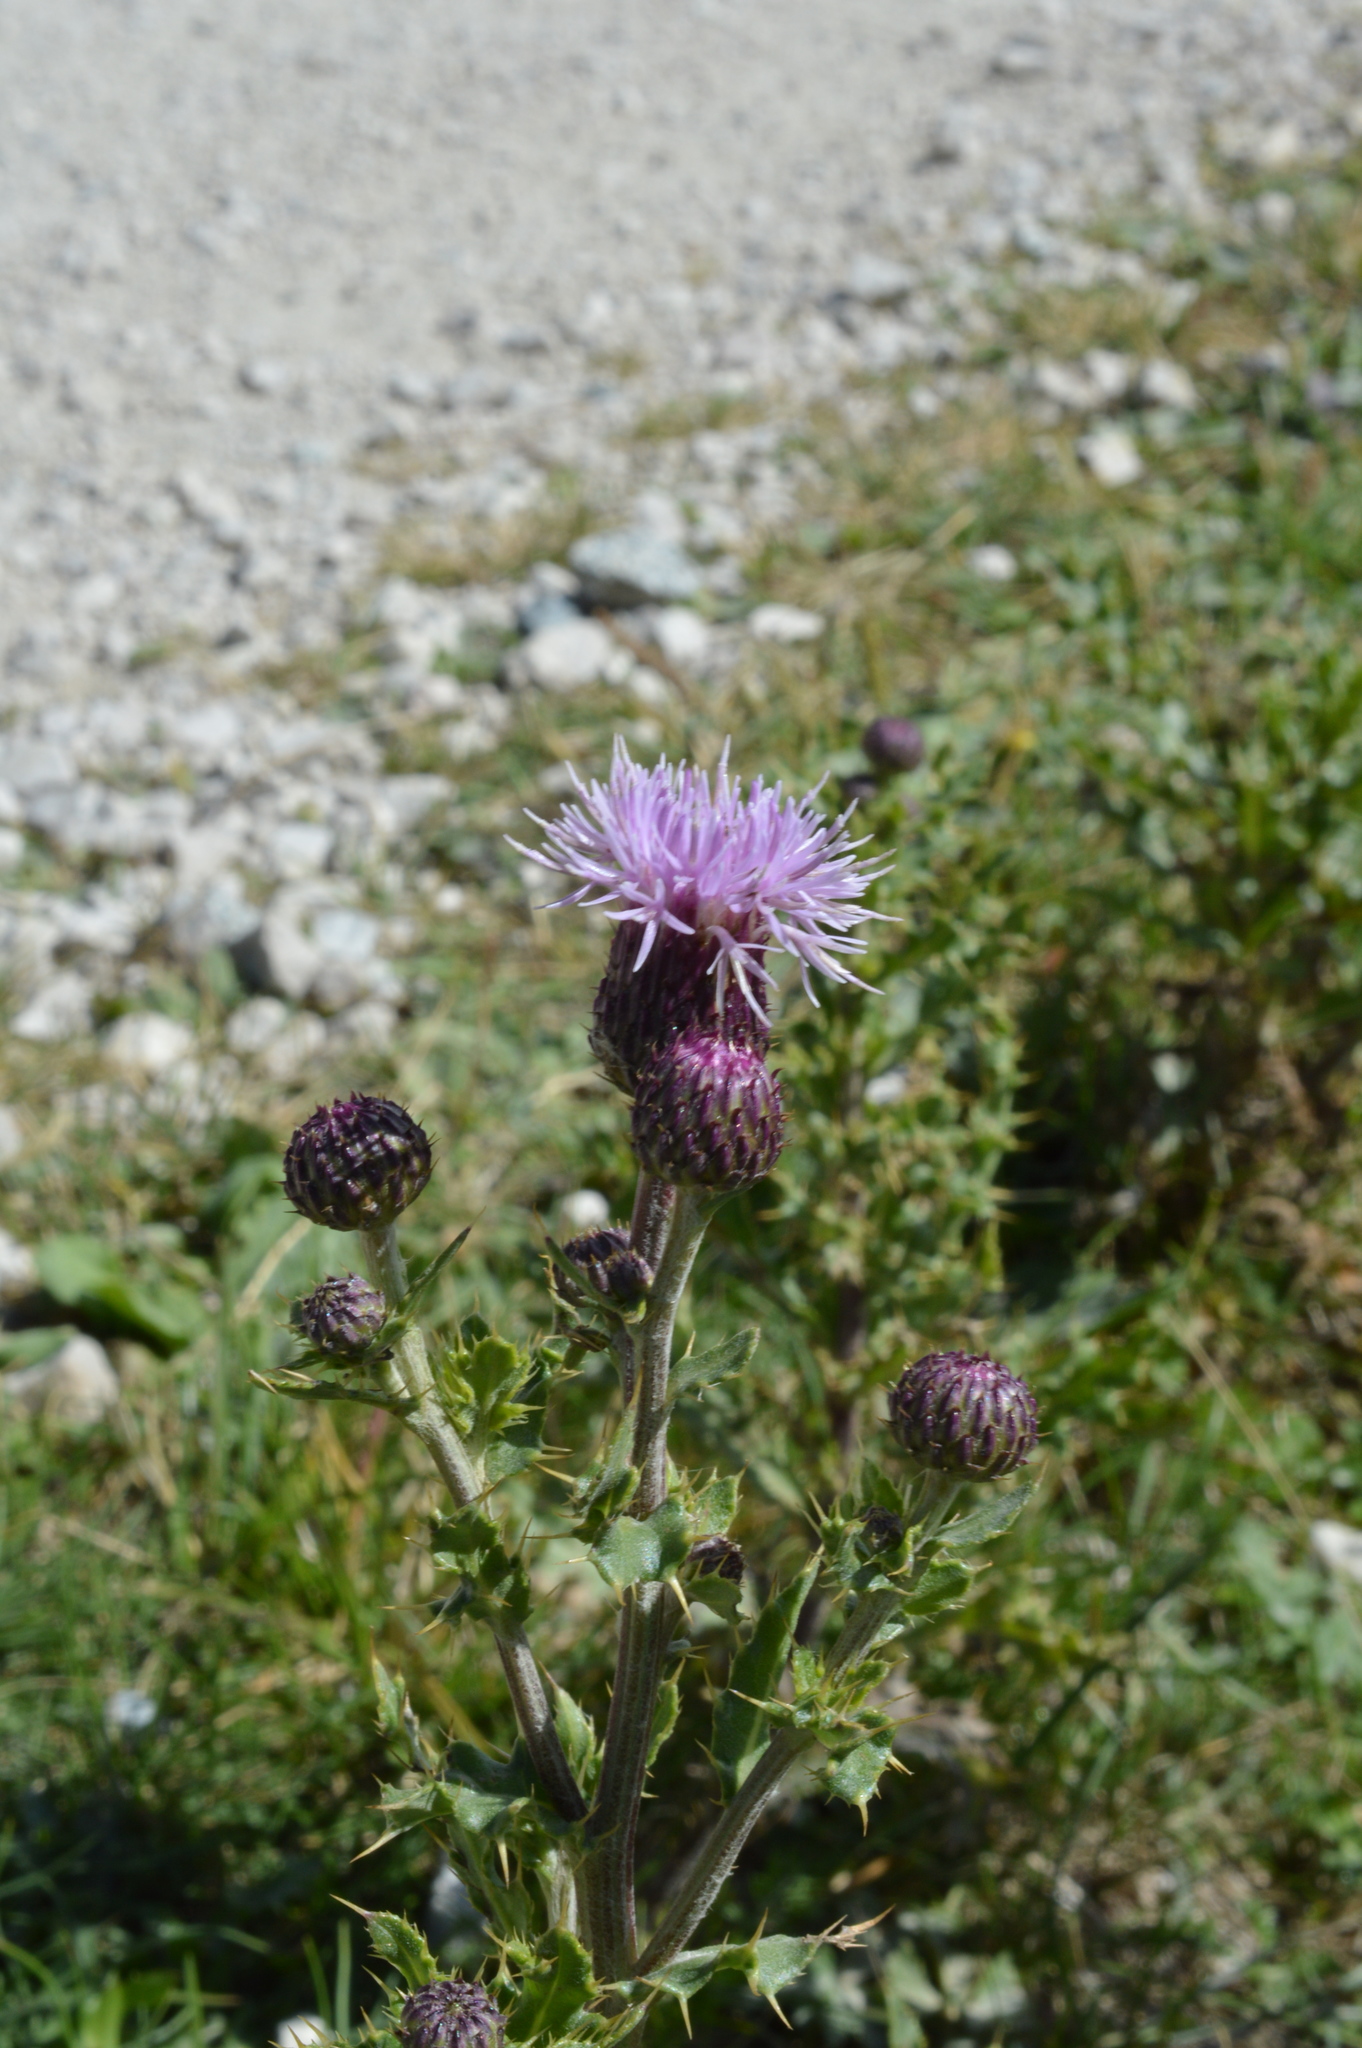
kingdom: Plantae
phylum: Tracheophyta
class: Magnoliopsida
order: Asterales
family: Asteraceae
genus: Cirsium
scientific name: Cirsium arvense
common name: Creeping thistle
